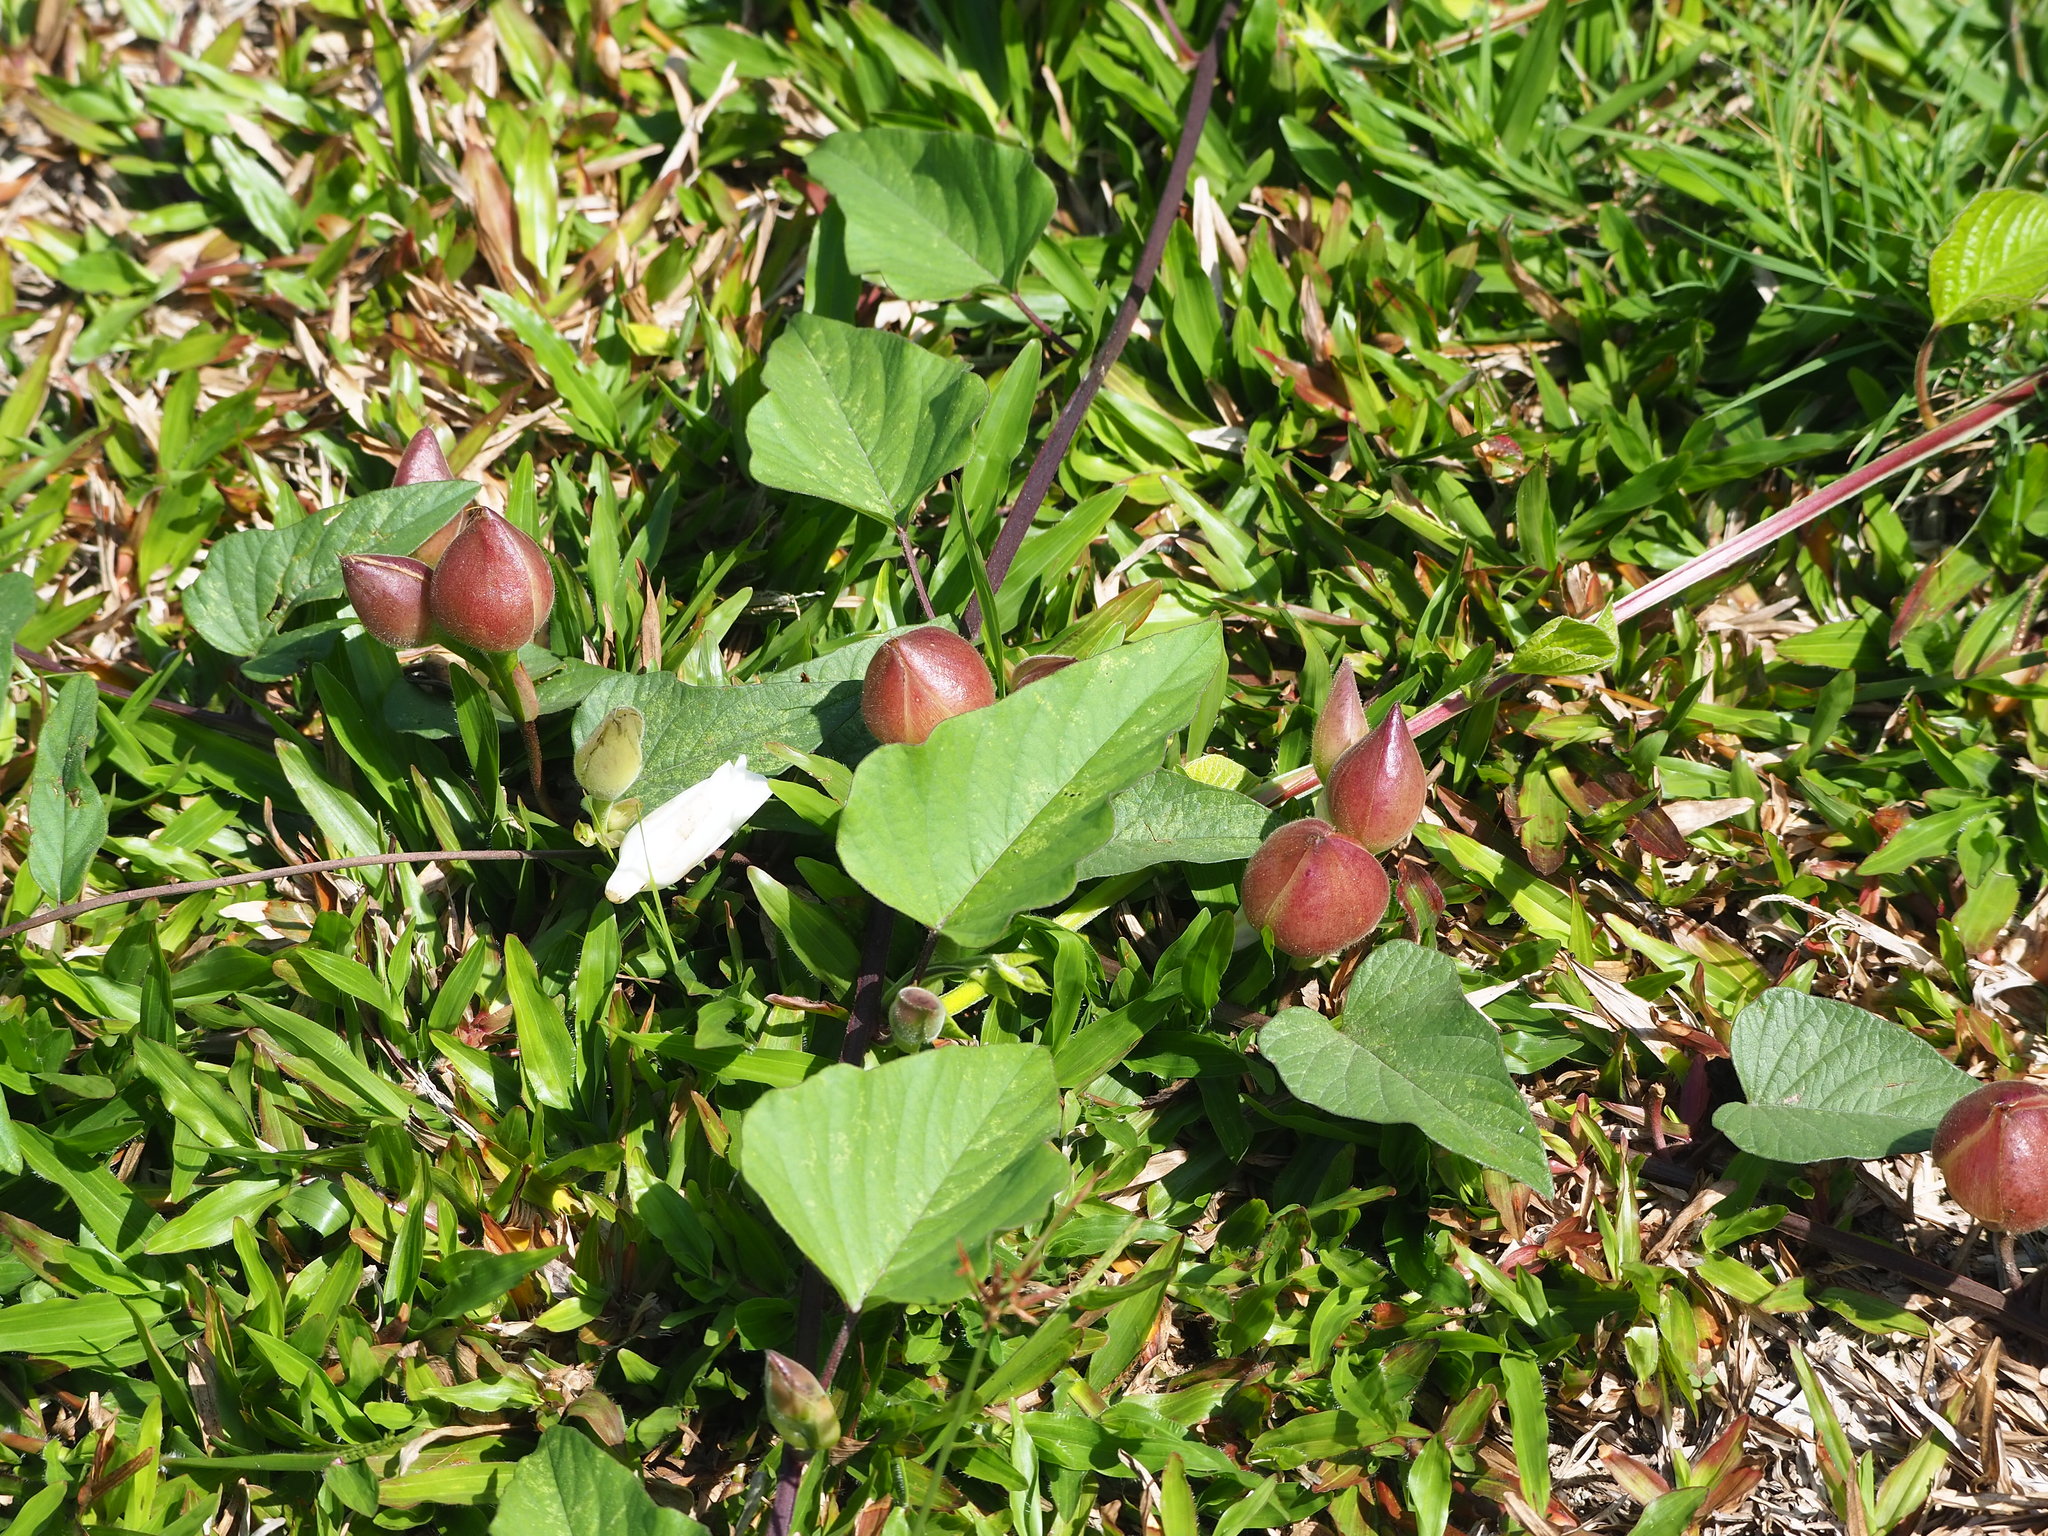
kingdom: Plantae
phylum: Tracheophyta
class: Magnoliopsida
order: Solanales
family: Convolvulaceae
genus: Operculina
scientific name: Operculina turpethum
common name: Transparent wood-rose
